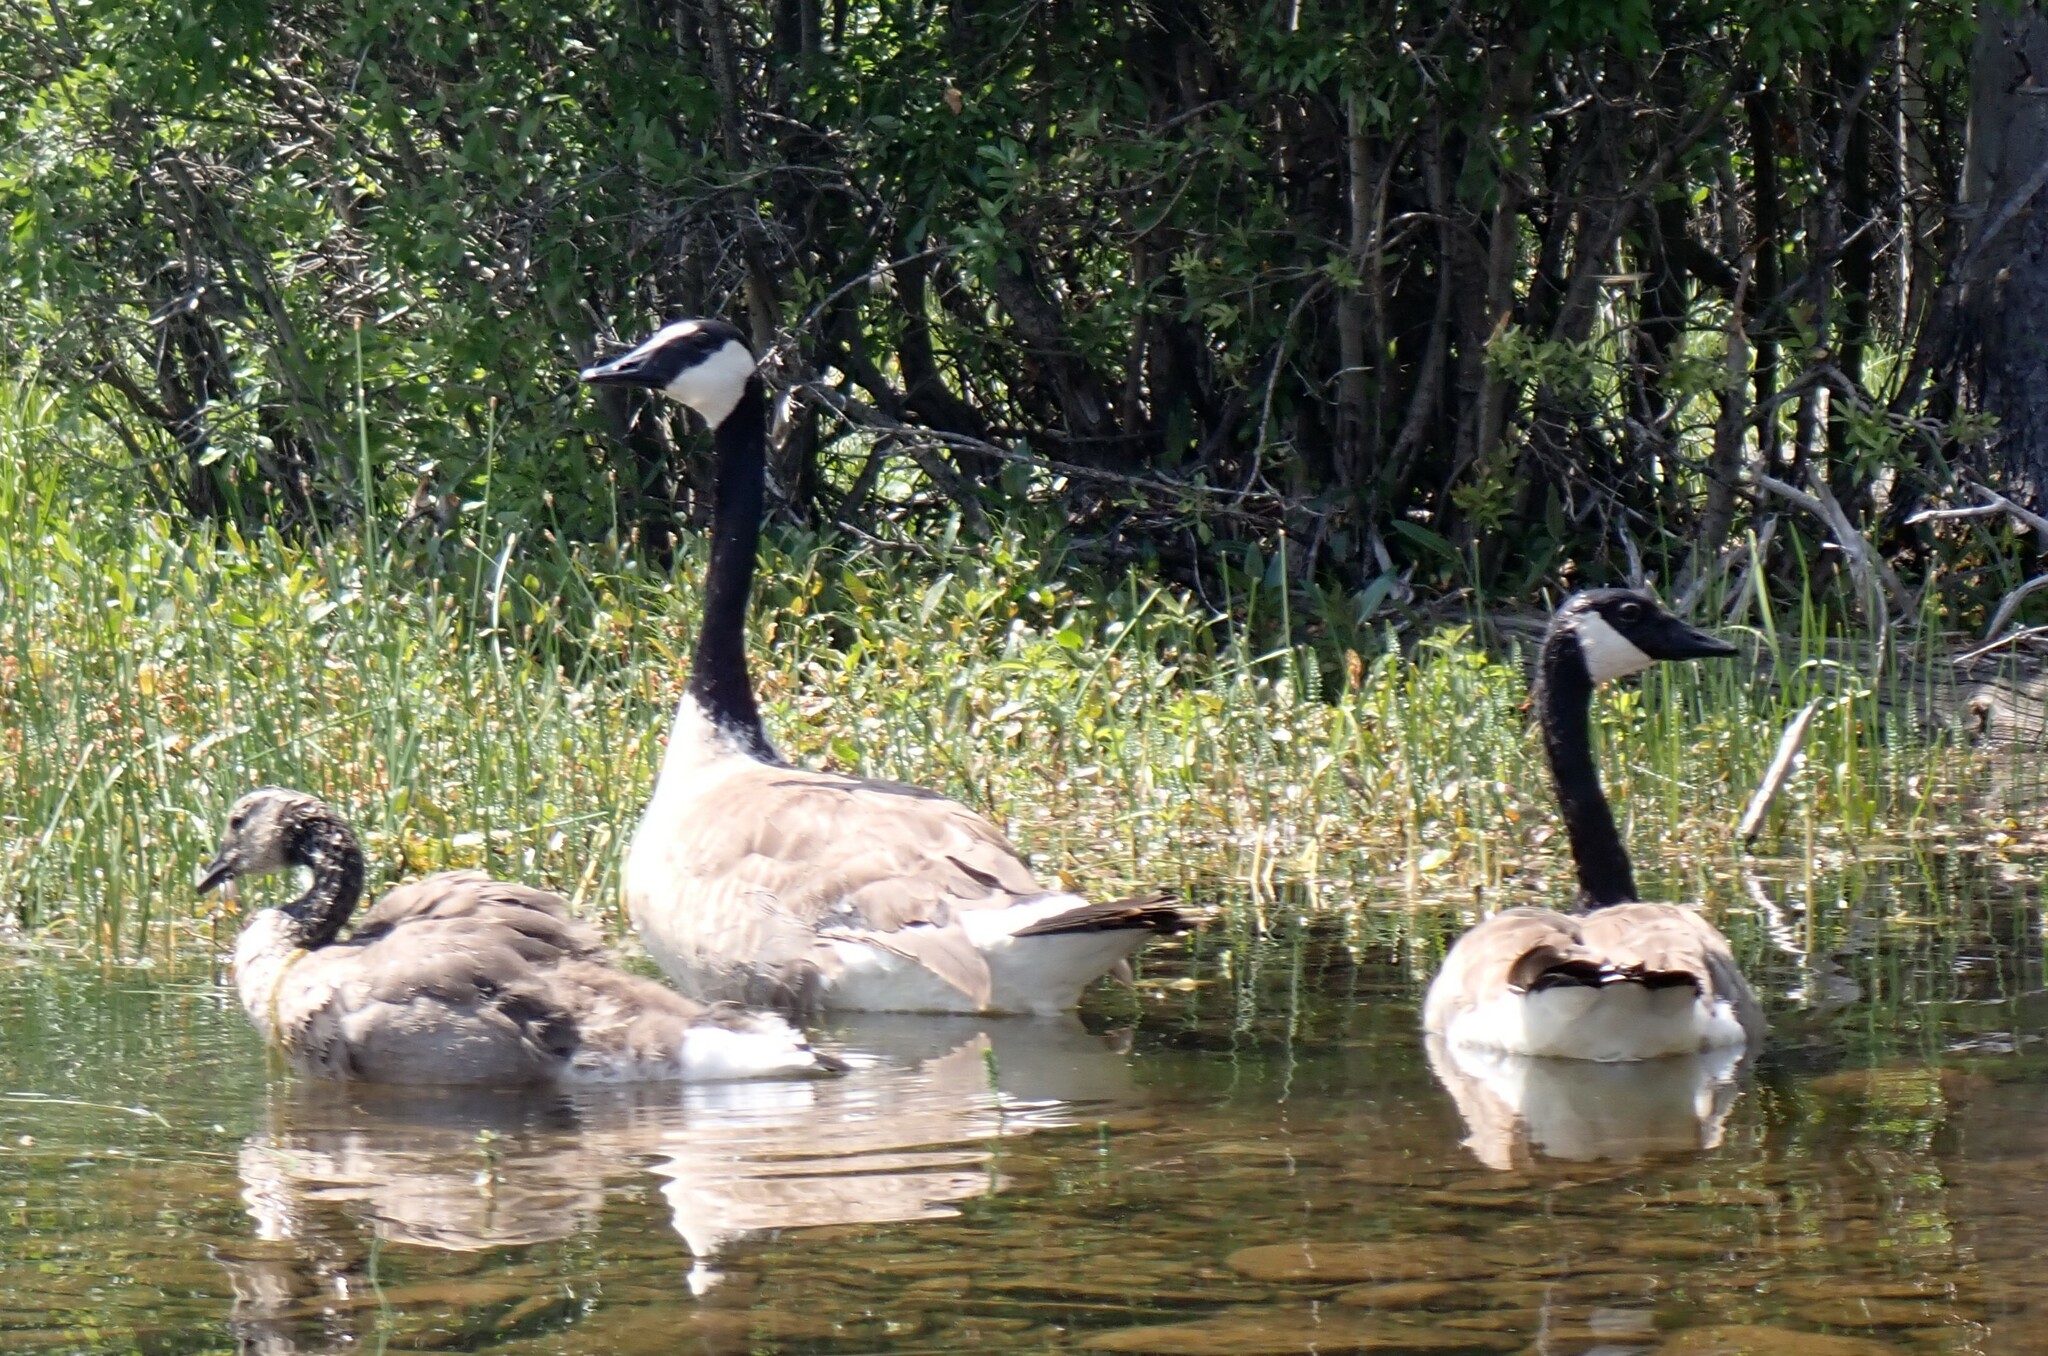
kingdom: Animalia
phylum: Chordata
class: Aves
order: Anseriformes
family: Anatidae
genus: Branta
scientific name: Branta canadensis
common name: Canada goose
